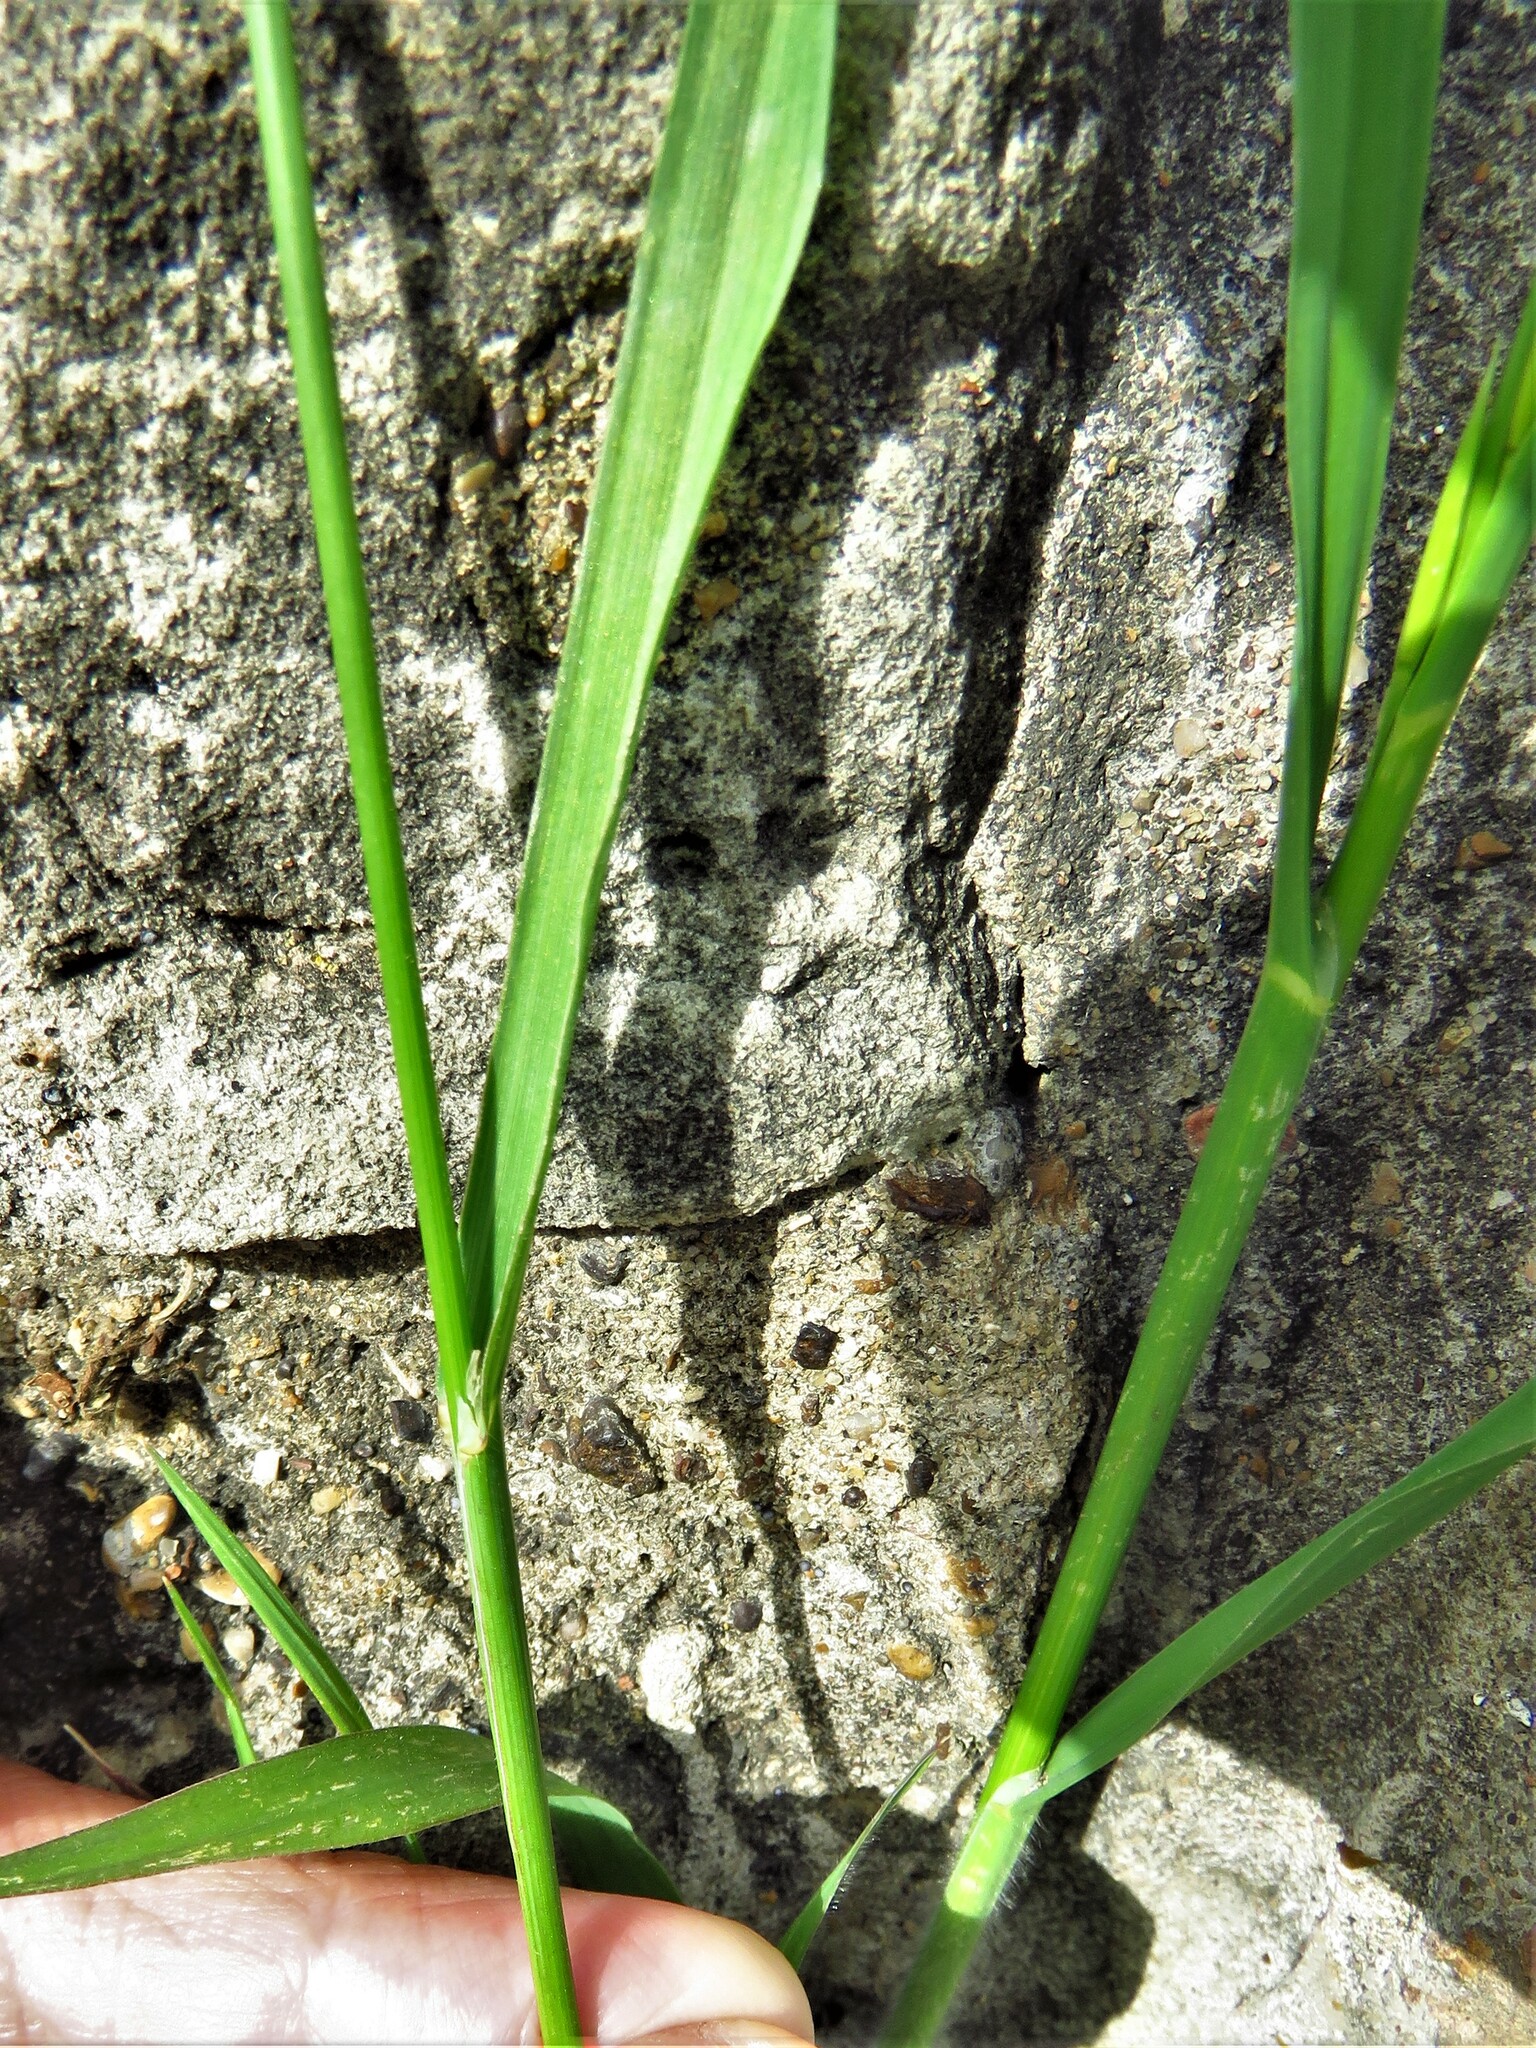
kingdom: Plantae
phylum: Tracheophyta
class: Liliopsida
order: Poales
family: Poaceae
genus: Bromus
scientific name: Bromus catharticus
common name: Rescuegrass
